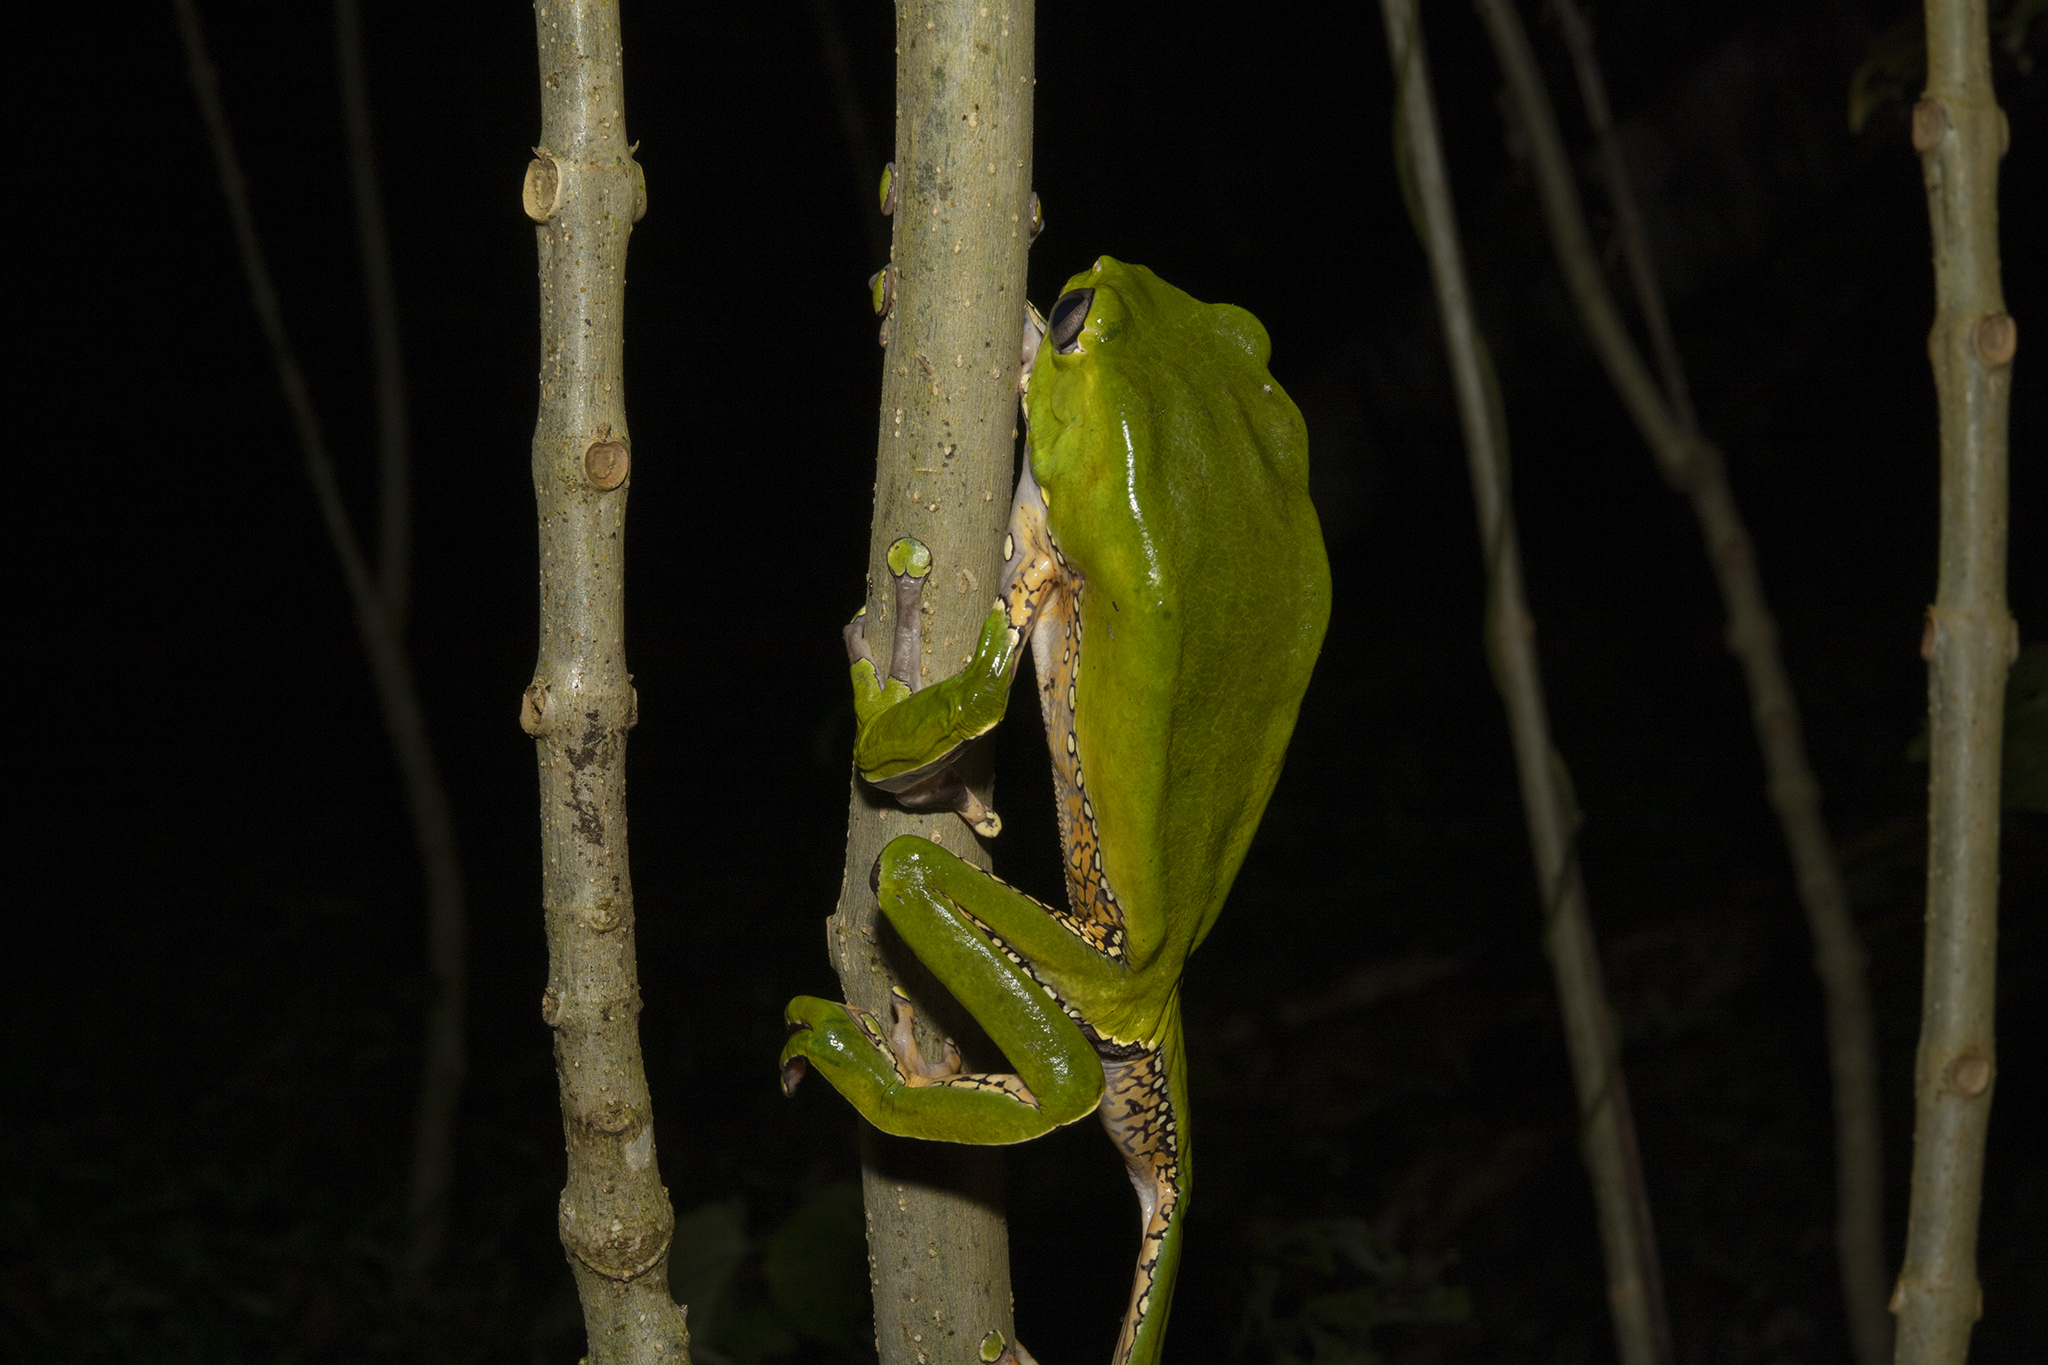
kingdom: Animalia
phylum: Chordata
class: Amphibia
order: Anura
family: Phyllomedusidae
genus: Phyllomedusa
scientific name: Phyllomedusa bicolor
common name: Giant monkey frog
